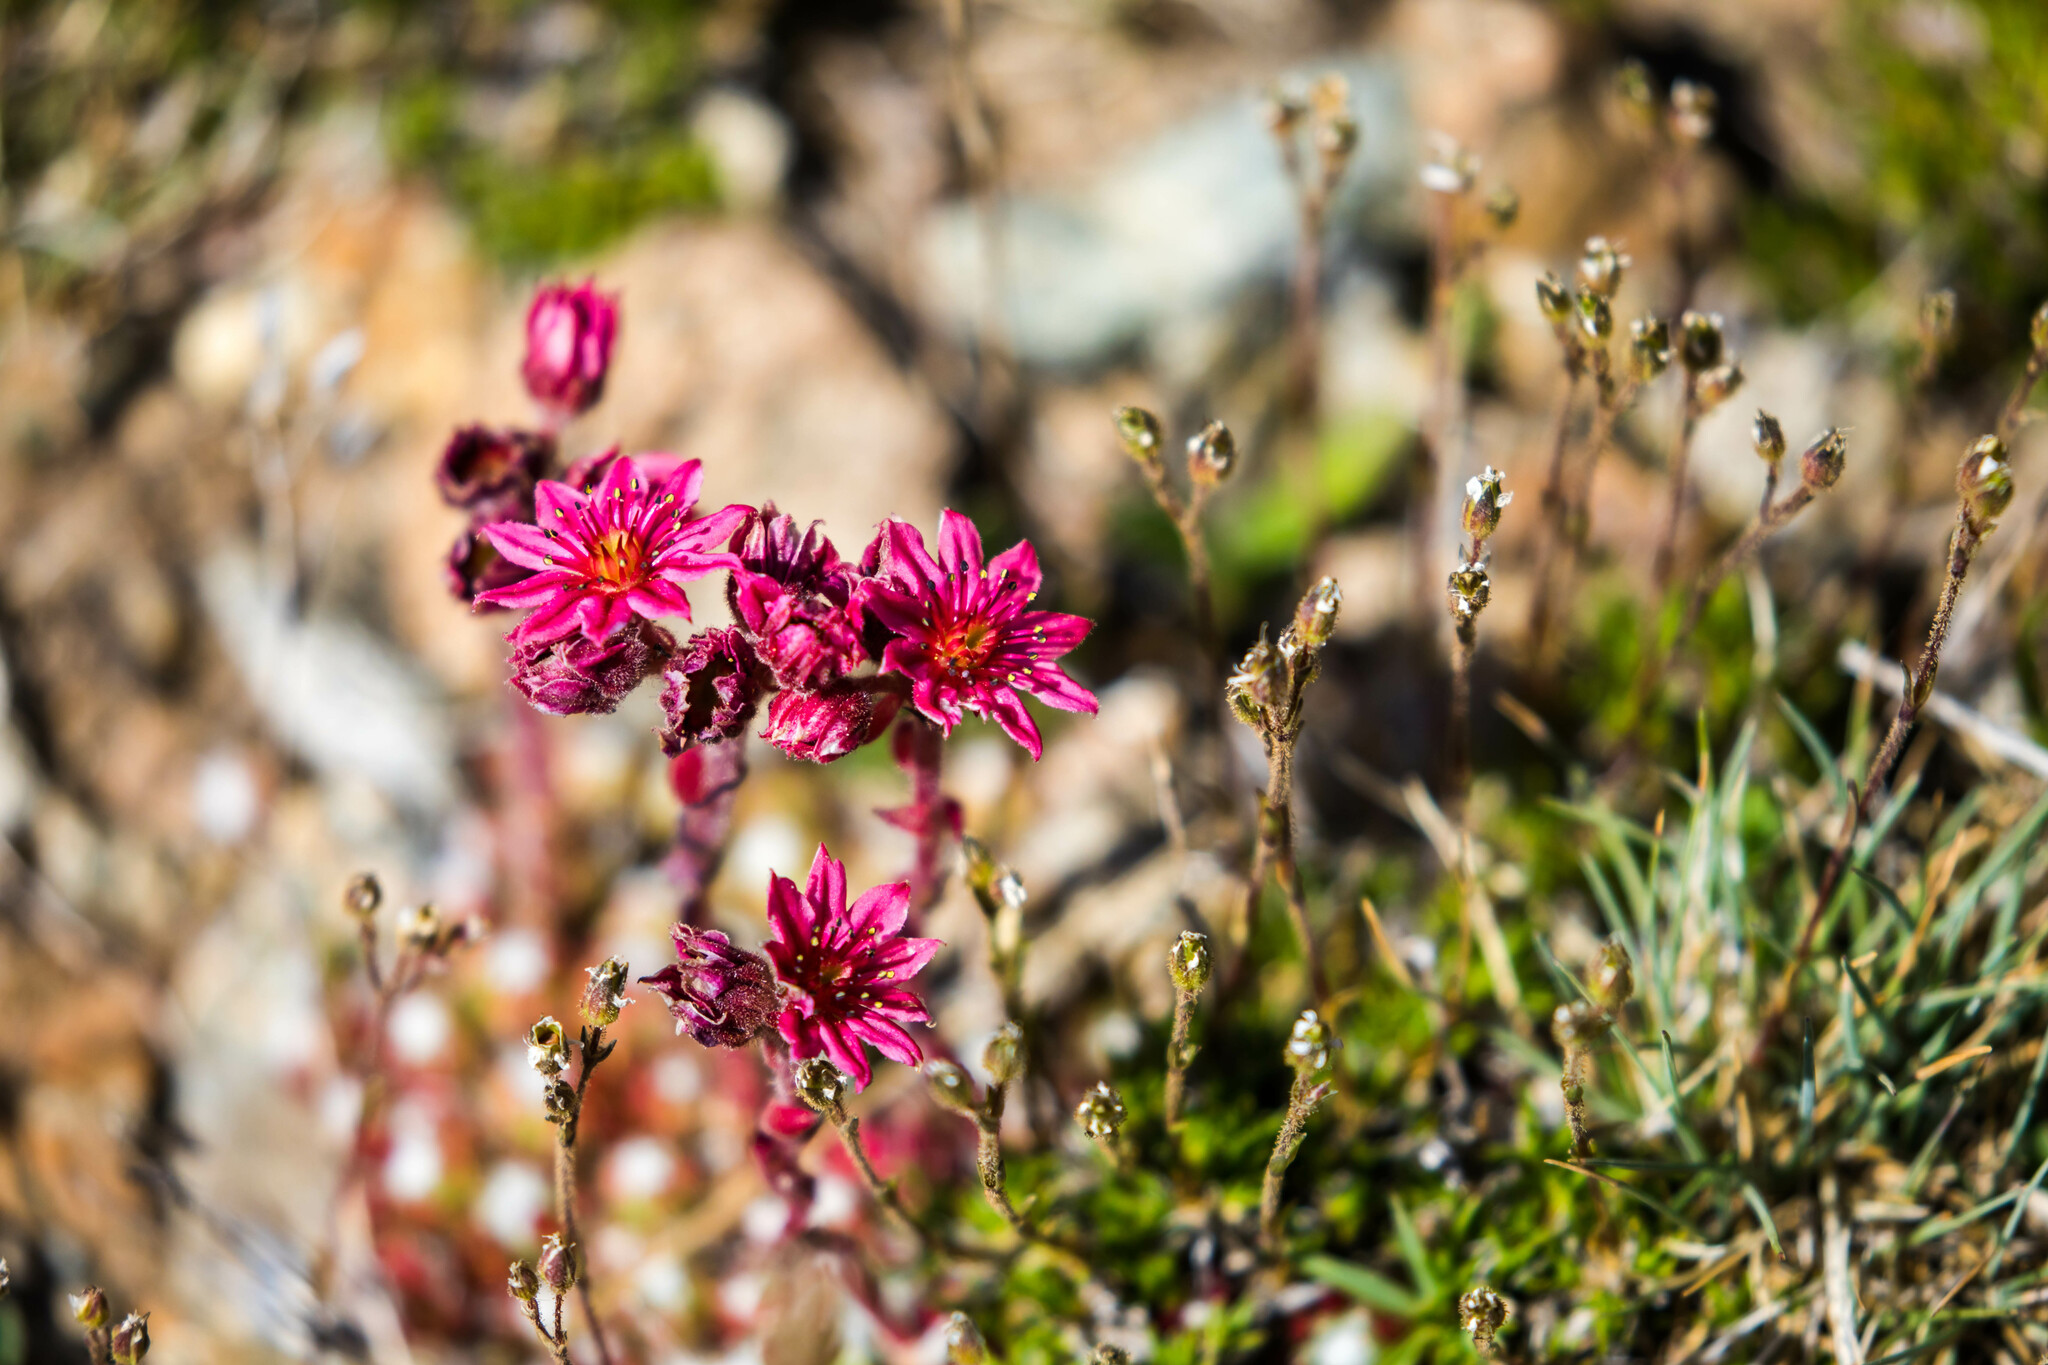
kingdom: Plantae
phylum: Tracheophyta
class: Magnoliopsida
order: Saxifragales
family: Crassulaceae
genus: Sempervivum
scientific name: Sempervivum arachnoideum
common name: Cobweb house-leek
